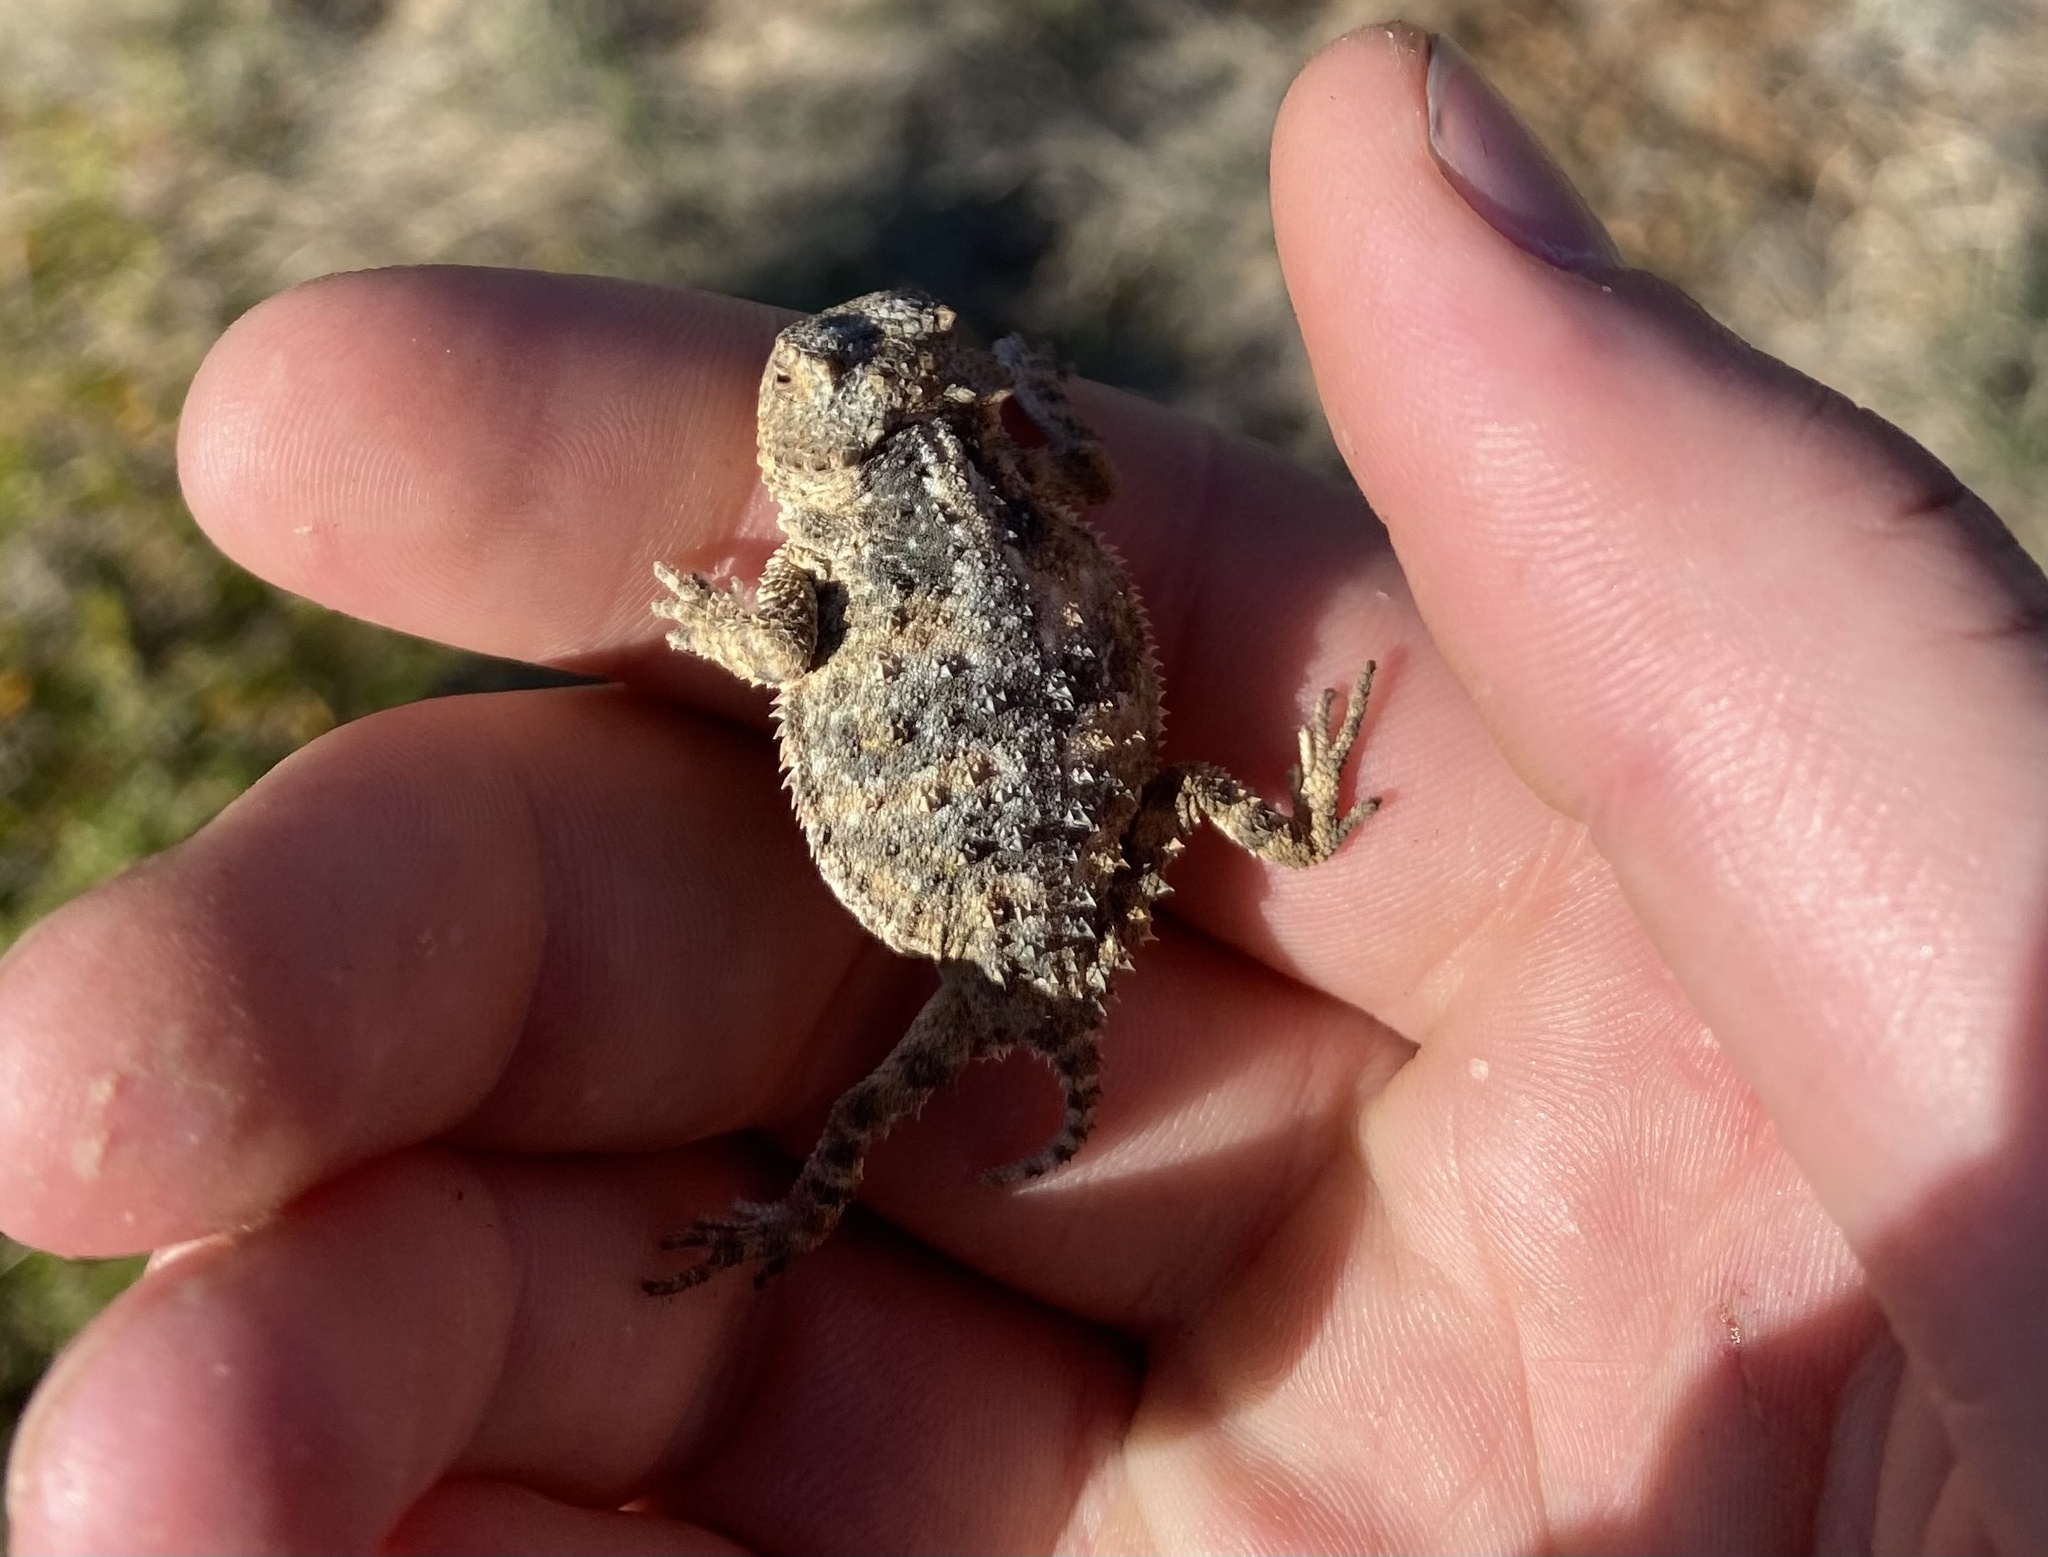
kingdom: Animalia
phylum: Chordata
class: Squamata
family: Phrynosomatidae
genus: Phrynosoma
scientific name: Phrynosoma hernandesi
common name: Greater short-horned lizard
